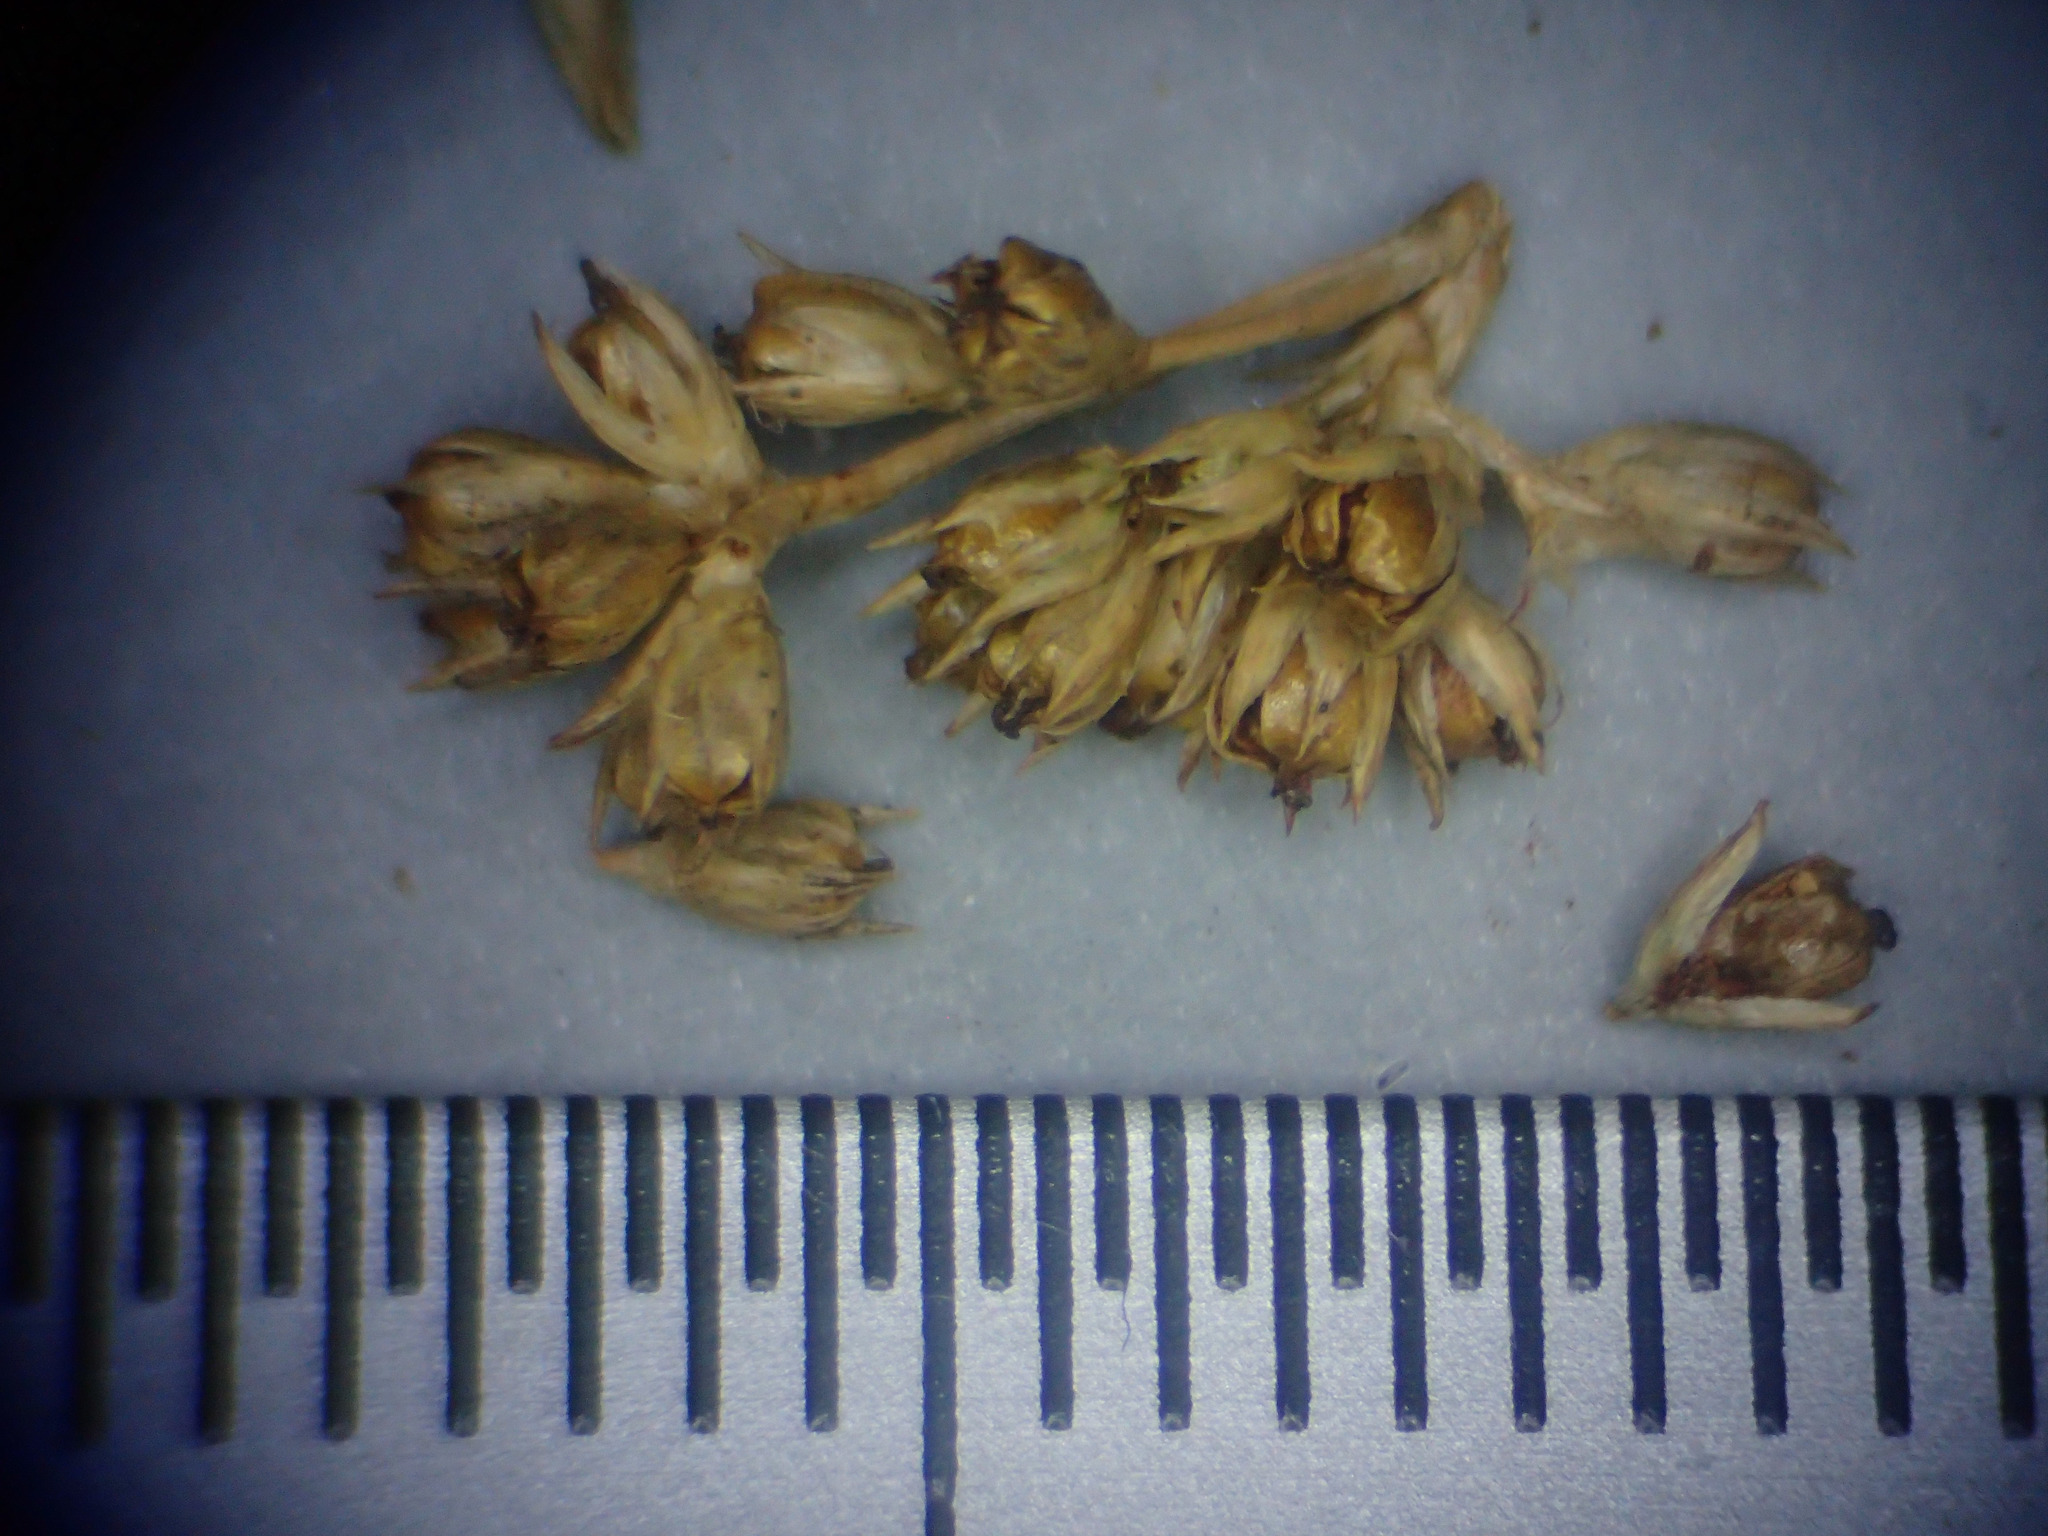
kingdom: Plantae
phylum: Tracheophyta
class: Liliopsida
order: Poales
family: Juncaceae
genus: Juncus
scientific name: Juncus edgariae
